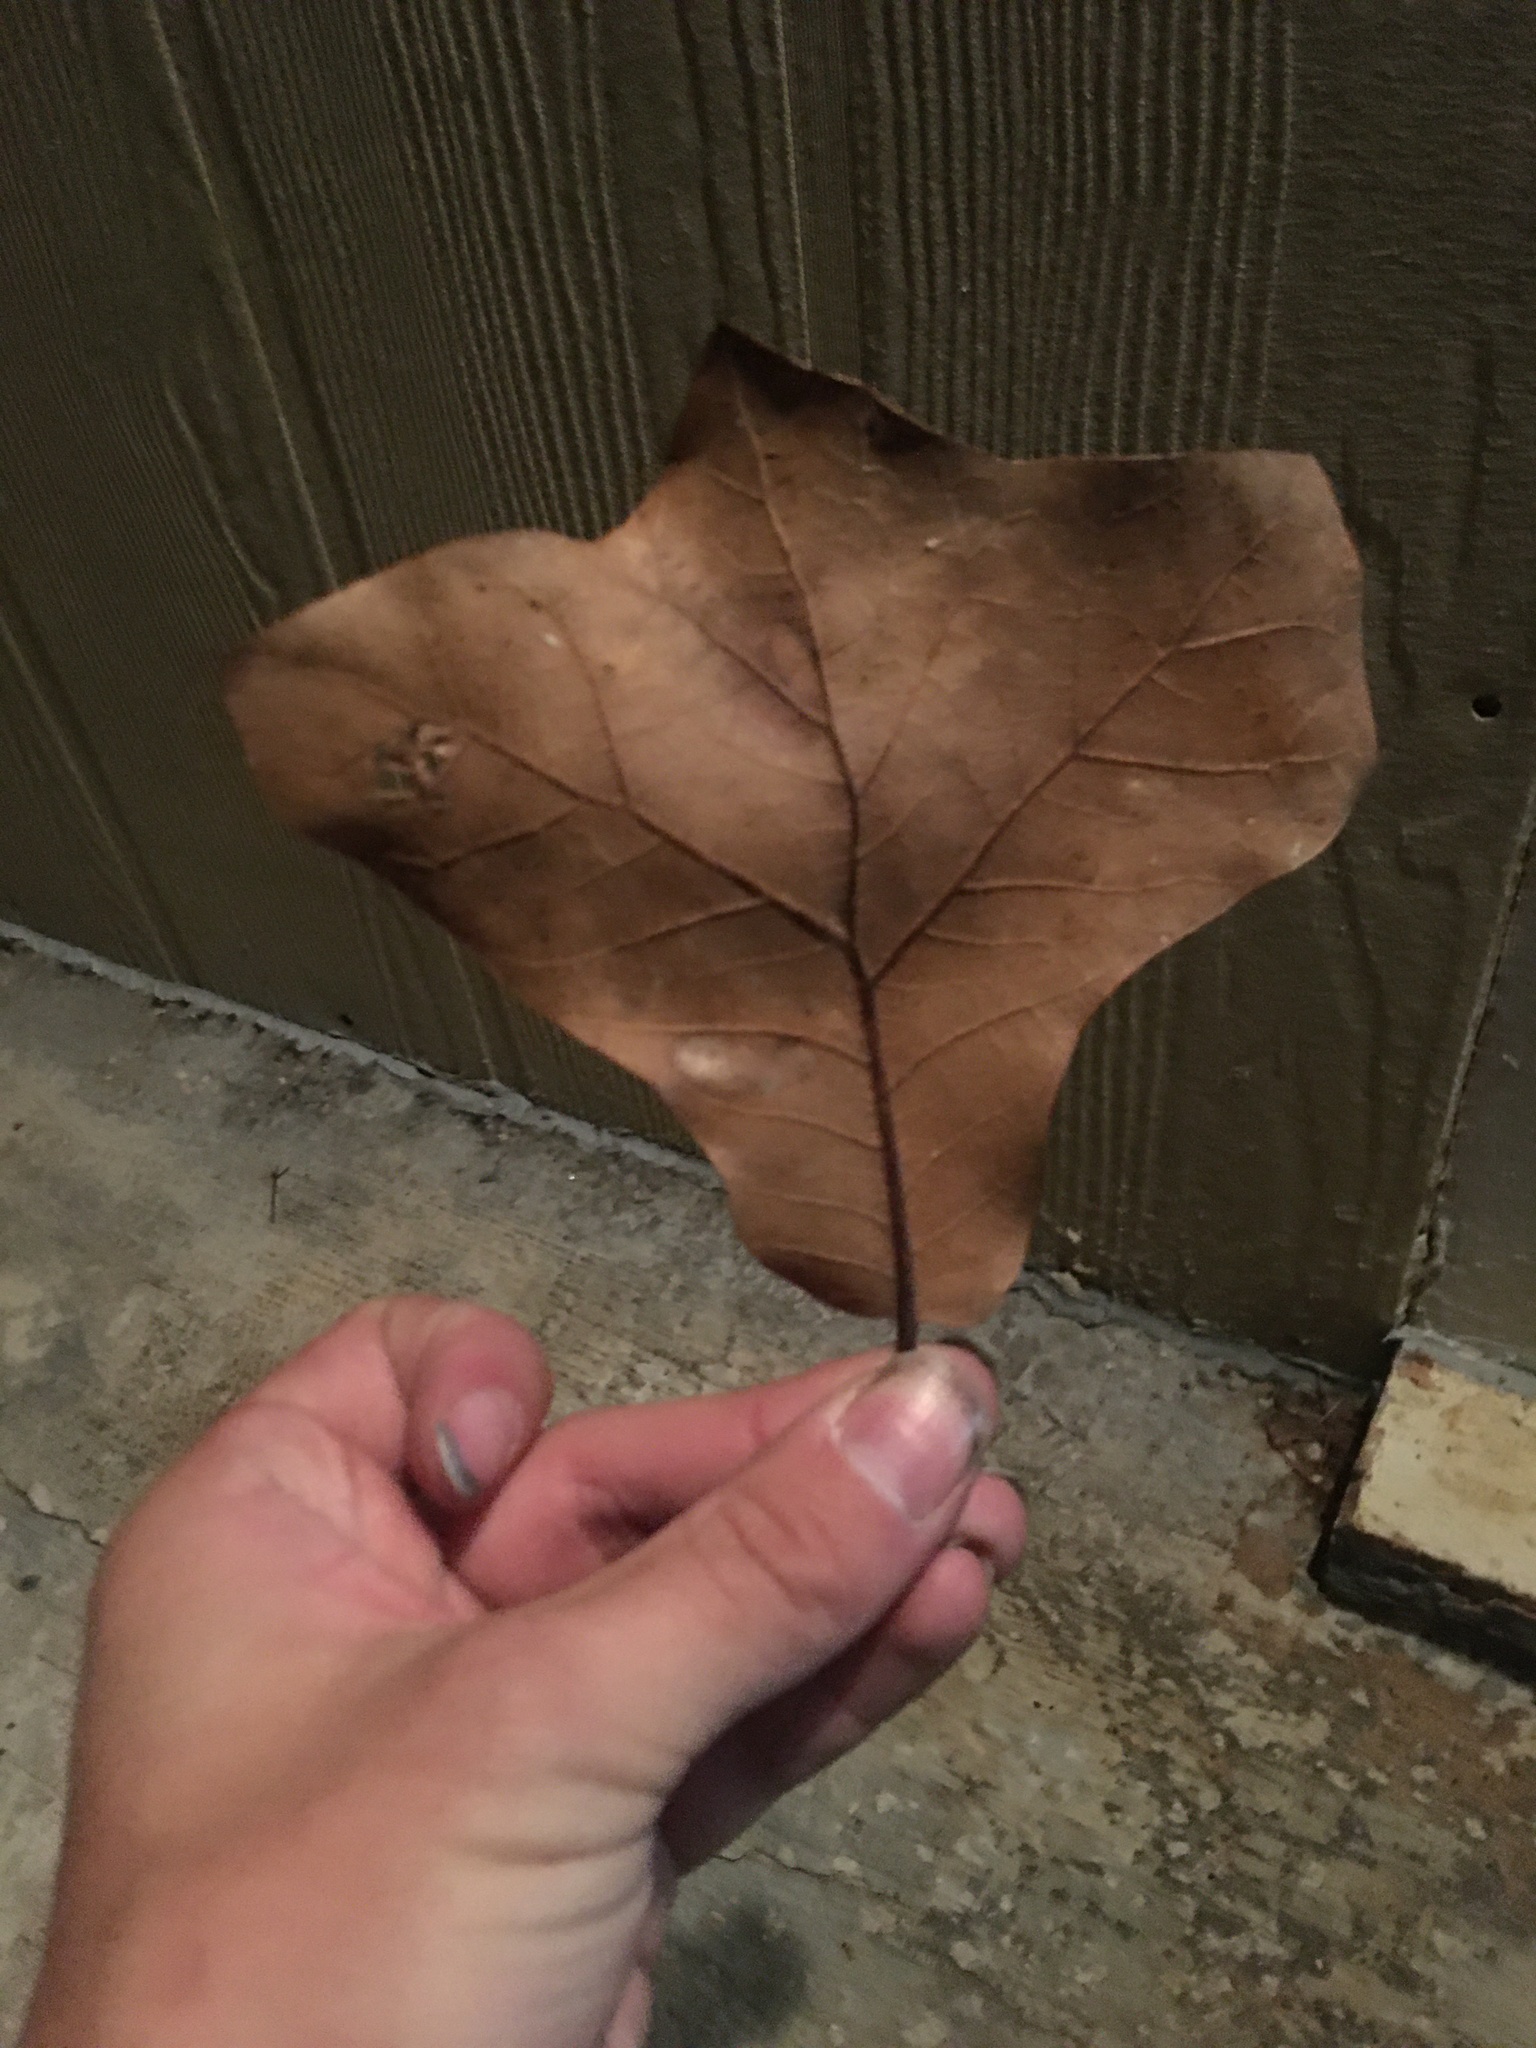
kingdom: Plantae
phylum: Tracheophyta
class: Magnoliopsida
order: Fagales
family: Fagaceae
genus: Quercus
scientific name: Quercus marilandica
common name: Blackjack oak
